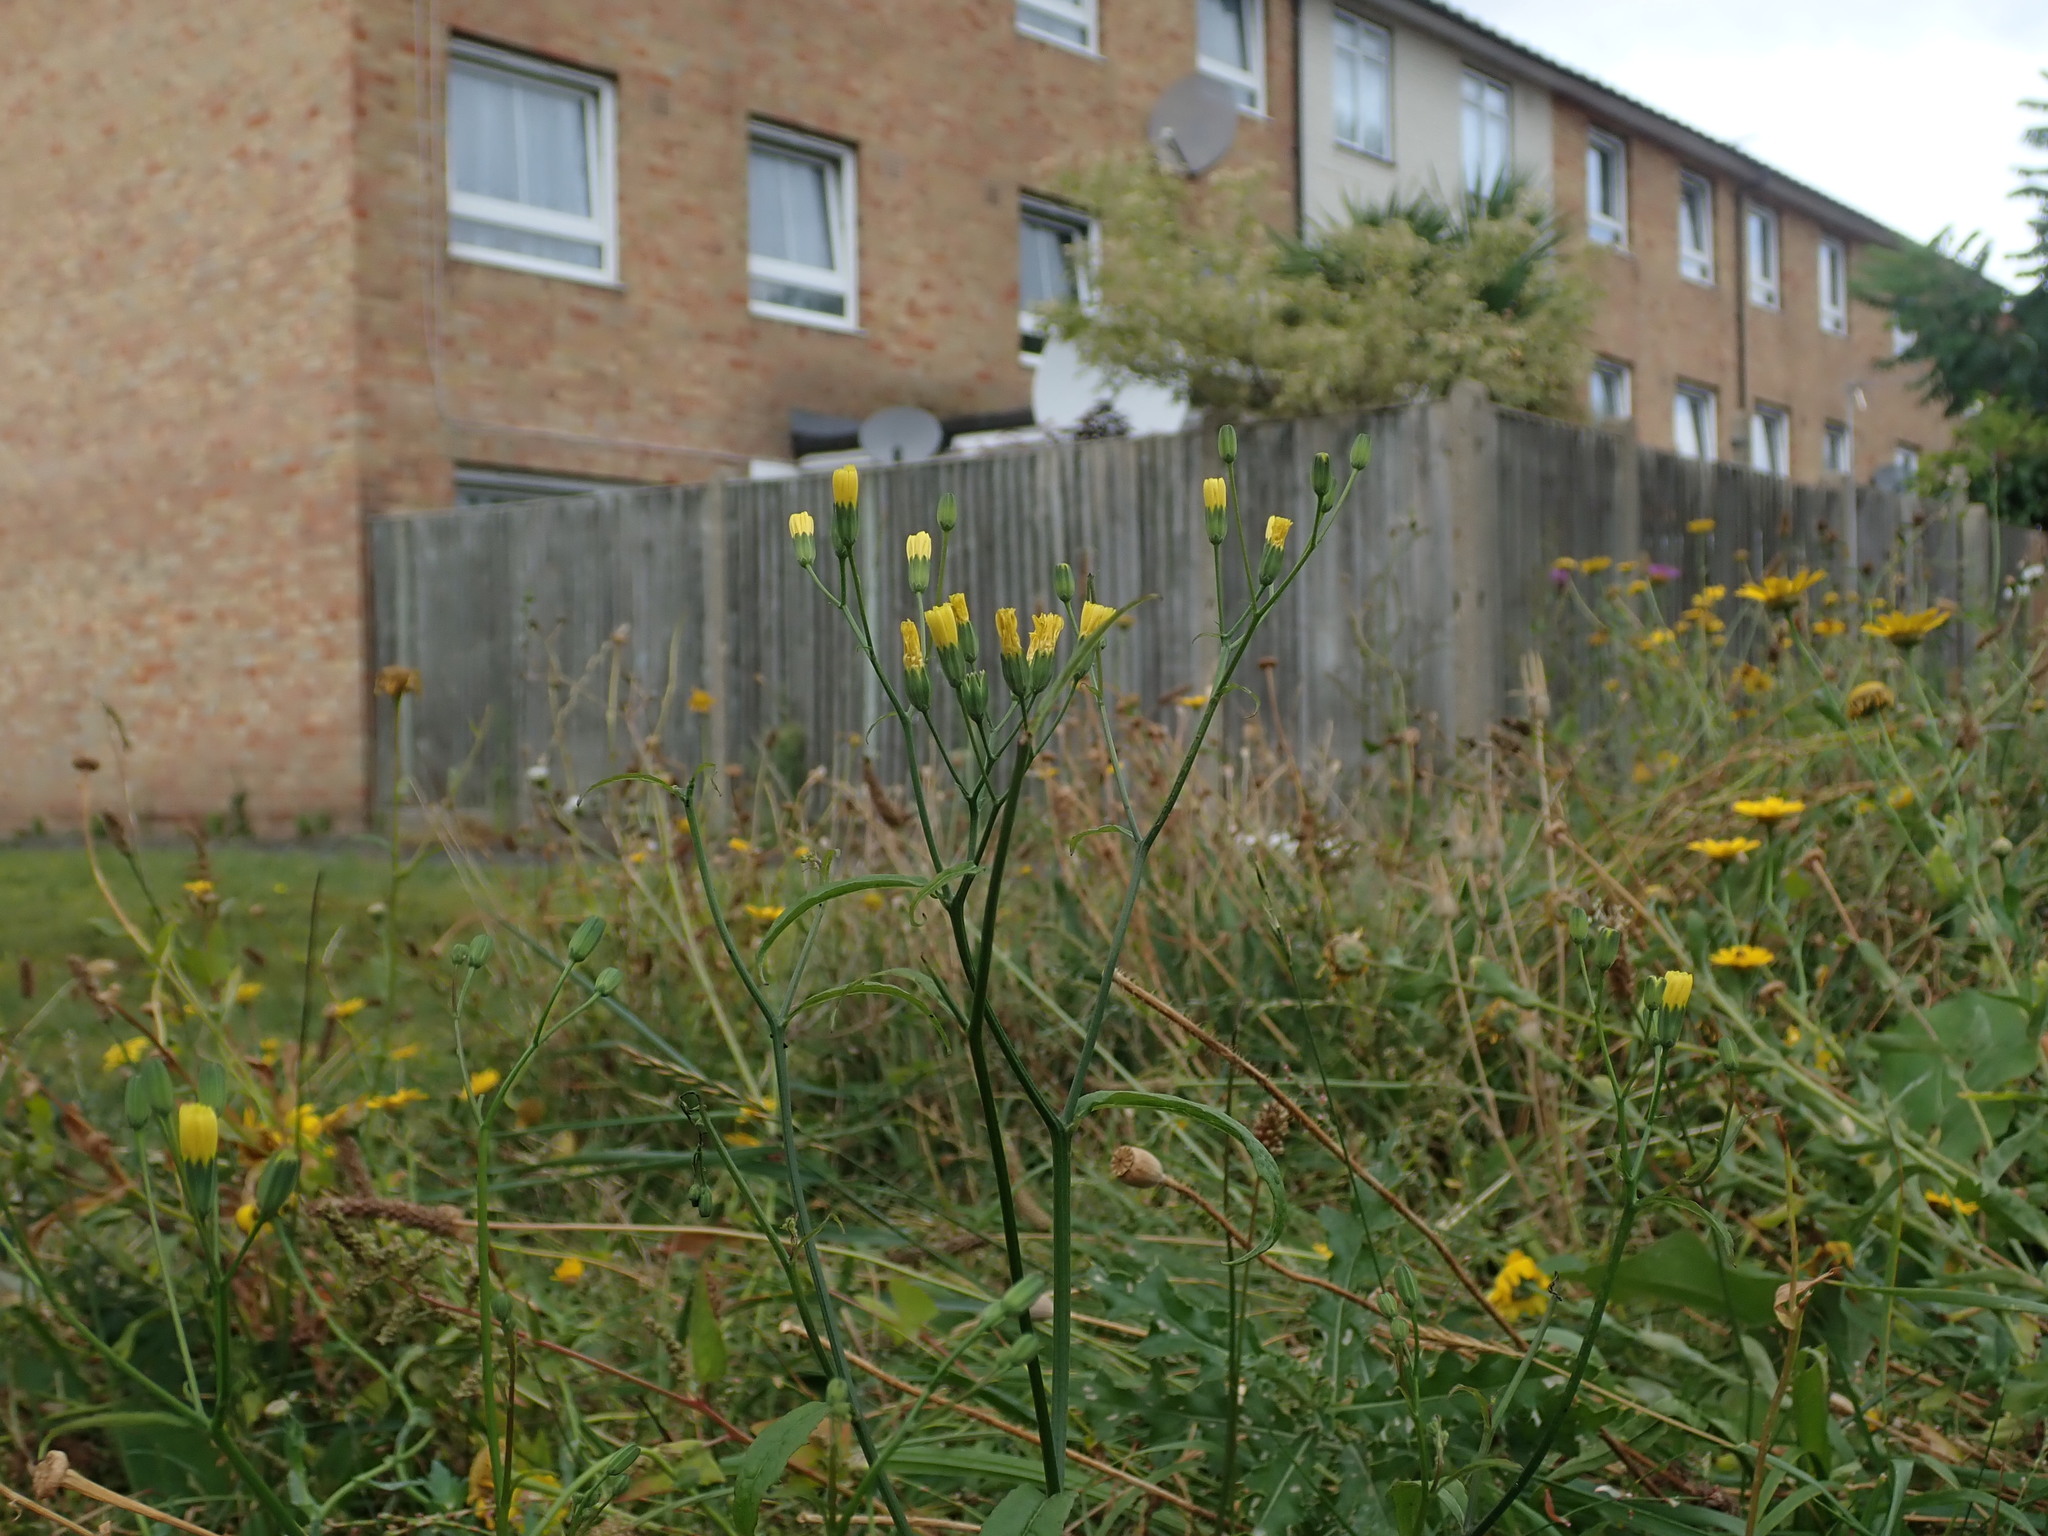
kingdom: Plantae
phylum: Tracheophyta
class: Magnoliopsida
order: Asterales
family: Asteraceae
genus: Lapsana
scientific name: Lapsana communis
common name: Nipplewort
